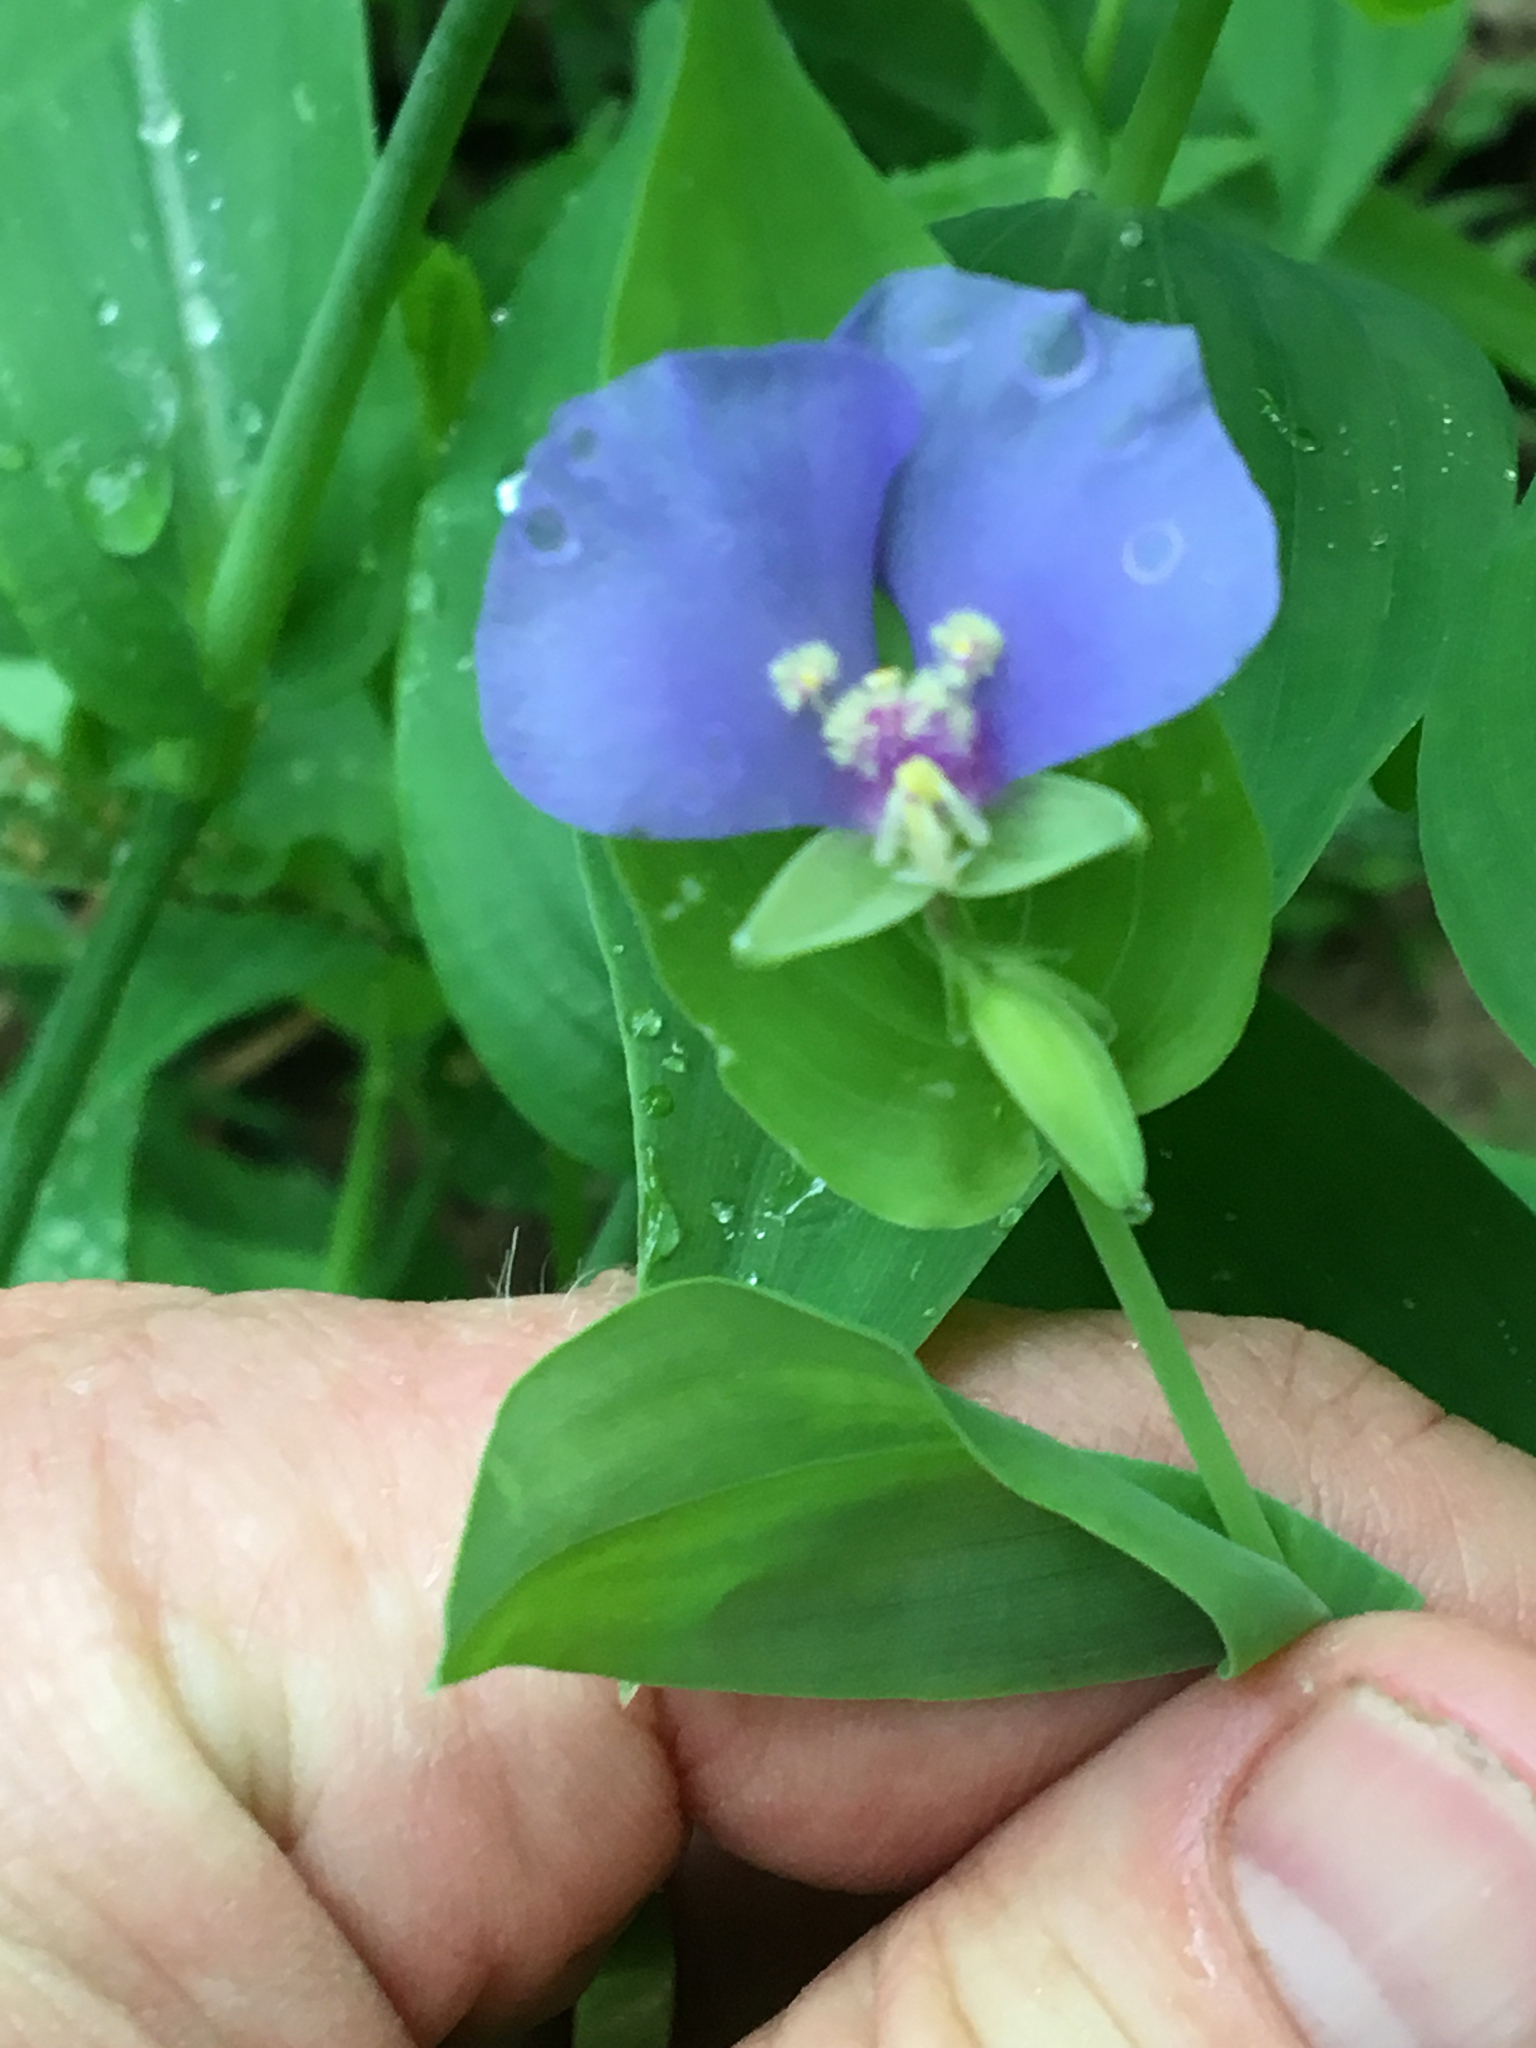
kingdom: Plantae
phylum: Tracheophyta
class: Liliopsida
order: Commelinales
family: Commelinaceae
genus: Tinantia
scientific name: Tinantia anomala
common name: False dayflower
